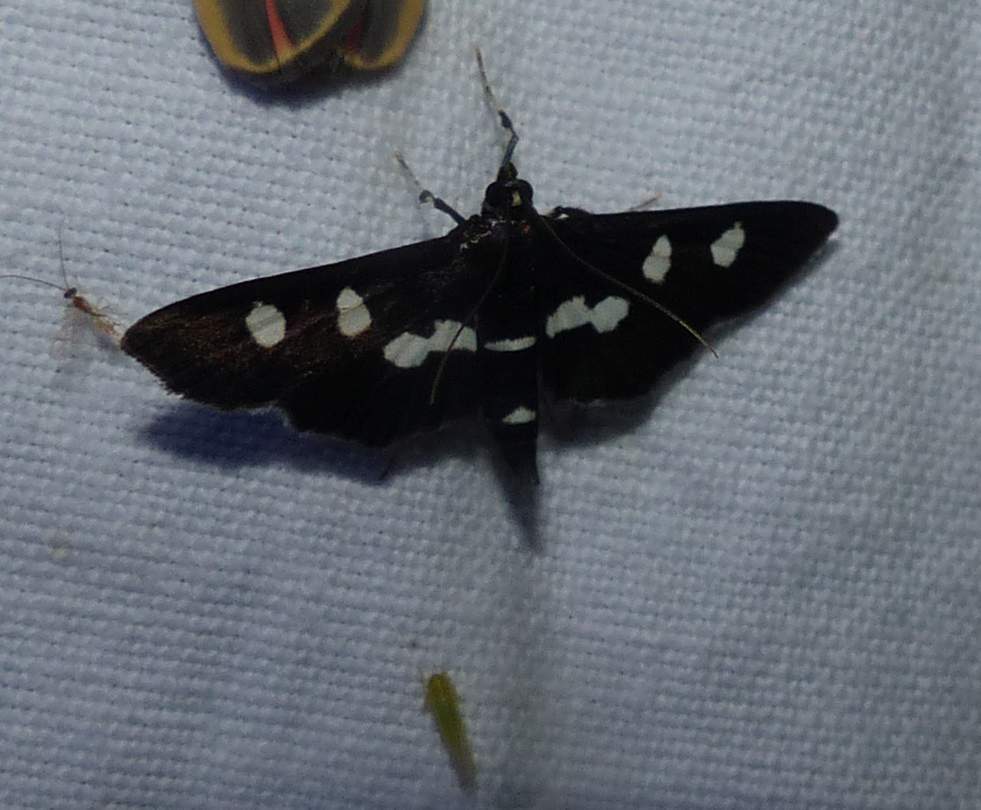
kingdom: Animalia
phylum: Arthropoda
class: Insecta
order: Lepidoptera
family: Crambidae
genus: Desmia
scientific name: Desmia
